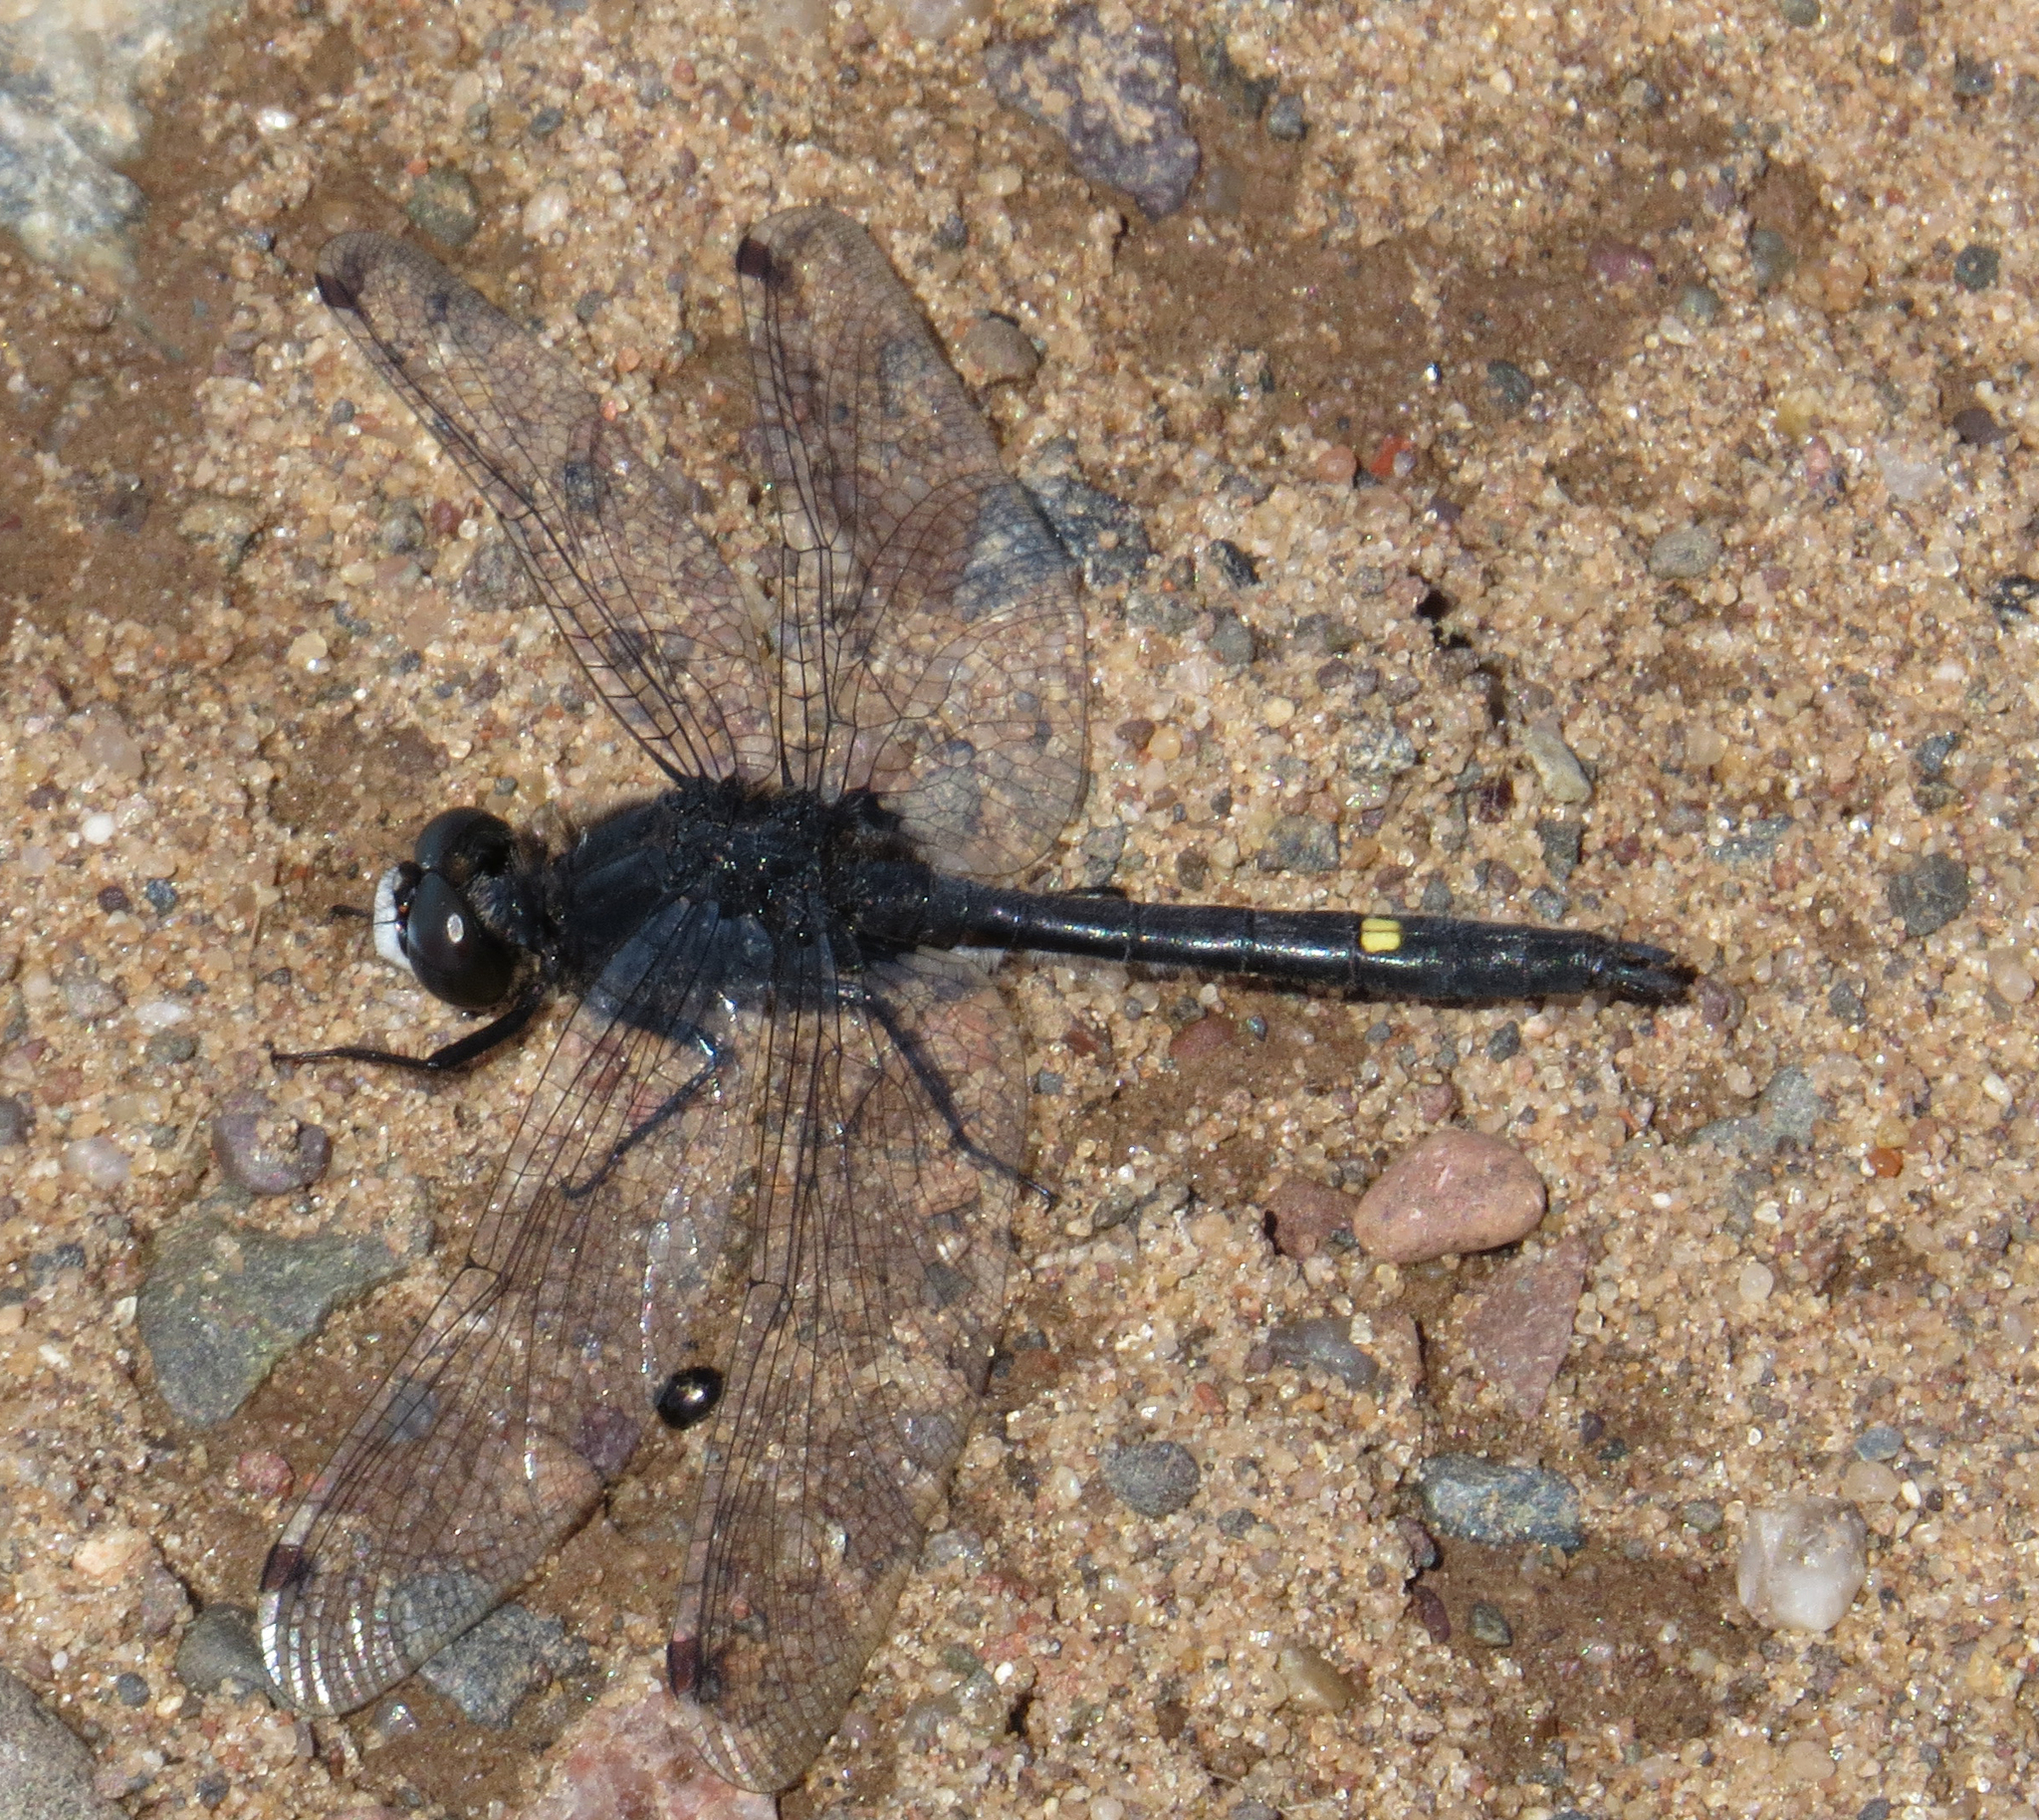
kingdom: Animalia
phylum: Arthropoda
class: Insecta
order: Odonata
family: Libellulidae
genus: Leucorrhinia
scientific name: Leucorrhinia intacta
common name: Dot-tailed whiteface
